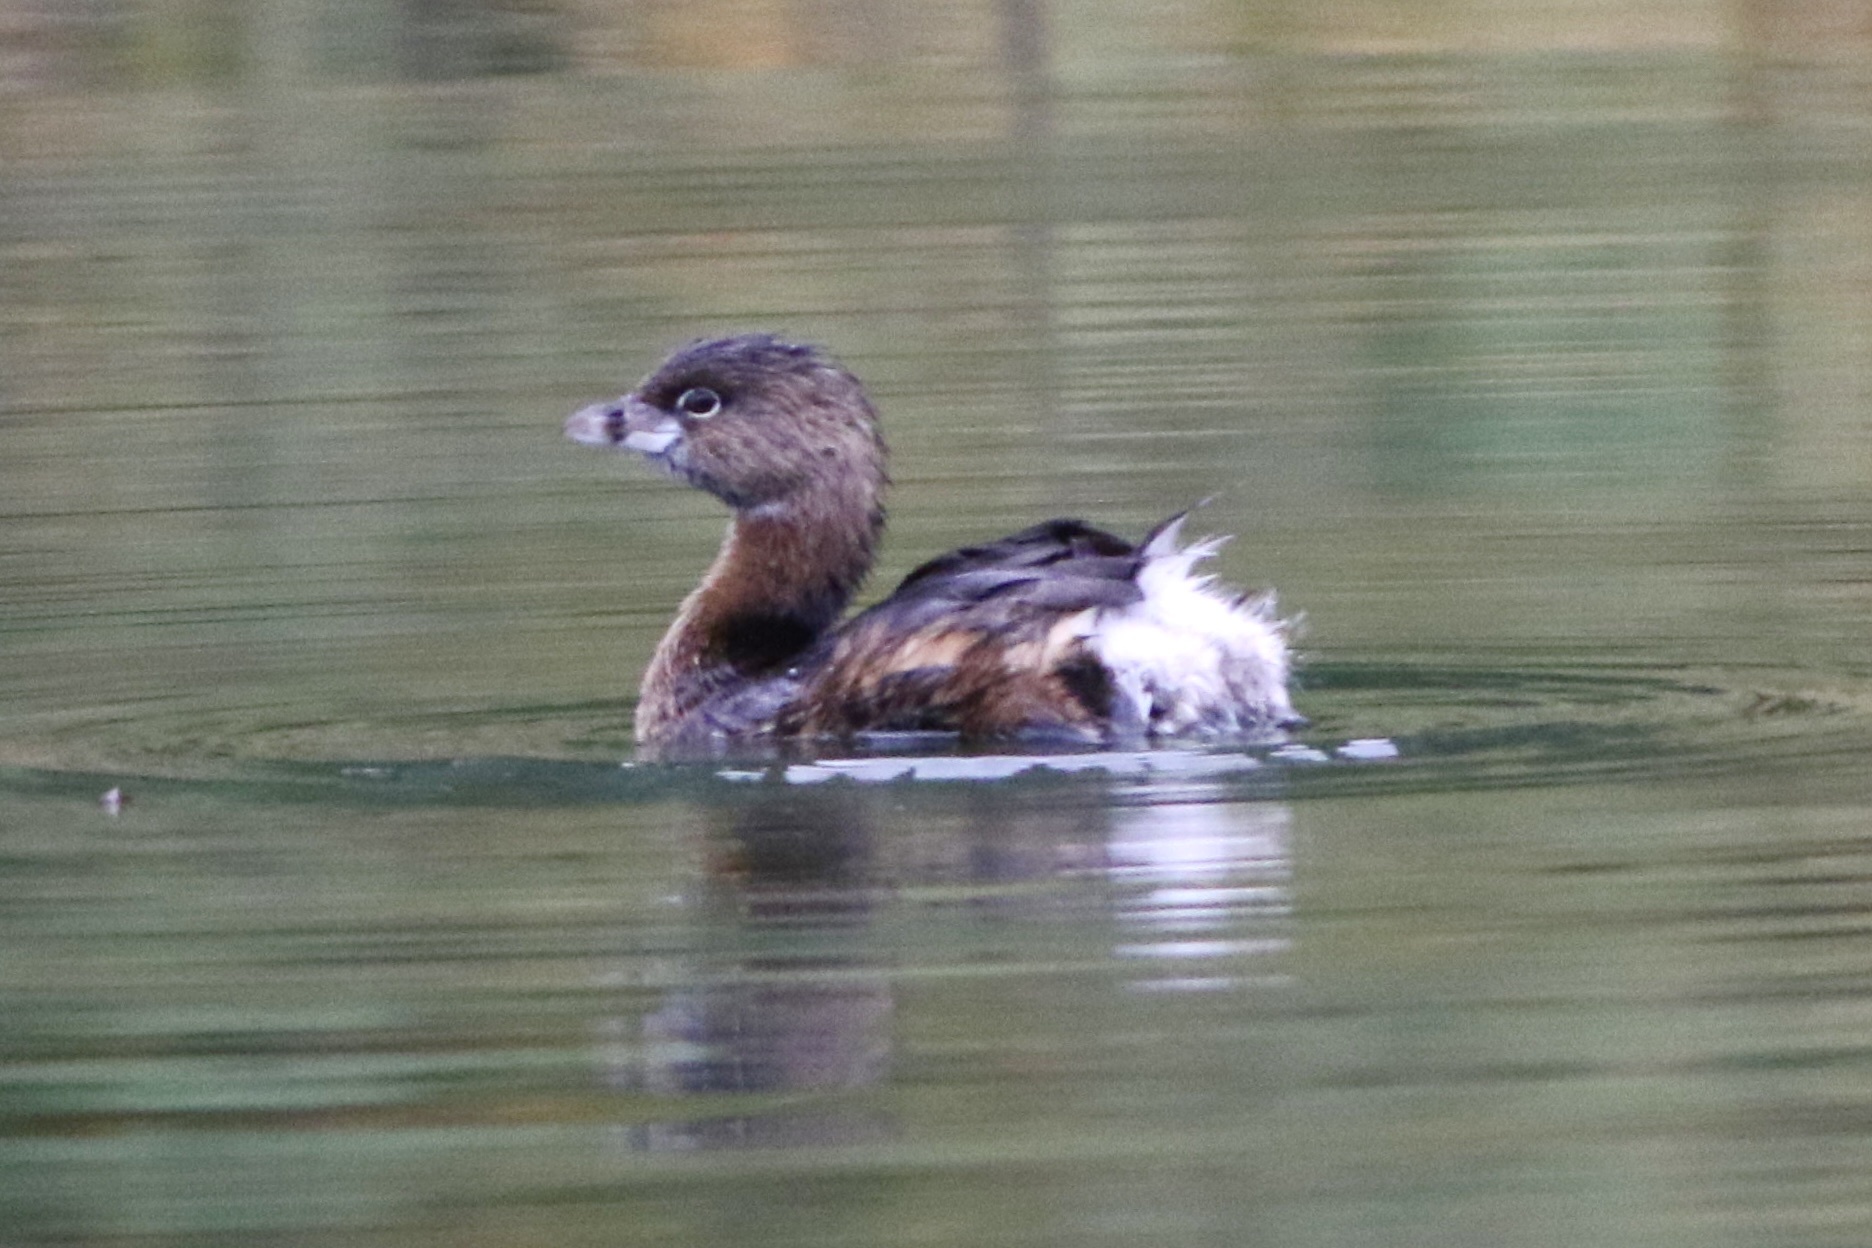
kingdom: Animalia
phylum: Chordata
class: Aves
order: Podicipediformes
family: Podicipedidae
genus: Podilymbus
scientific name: Podilymbus podiceps
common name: Pied-billed grebe
